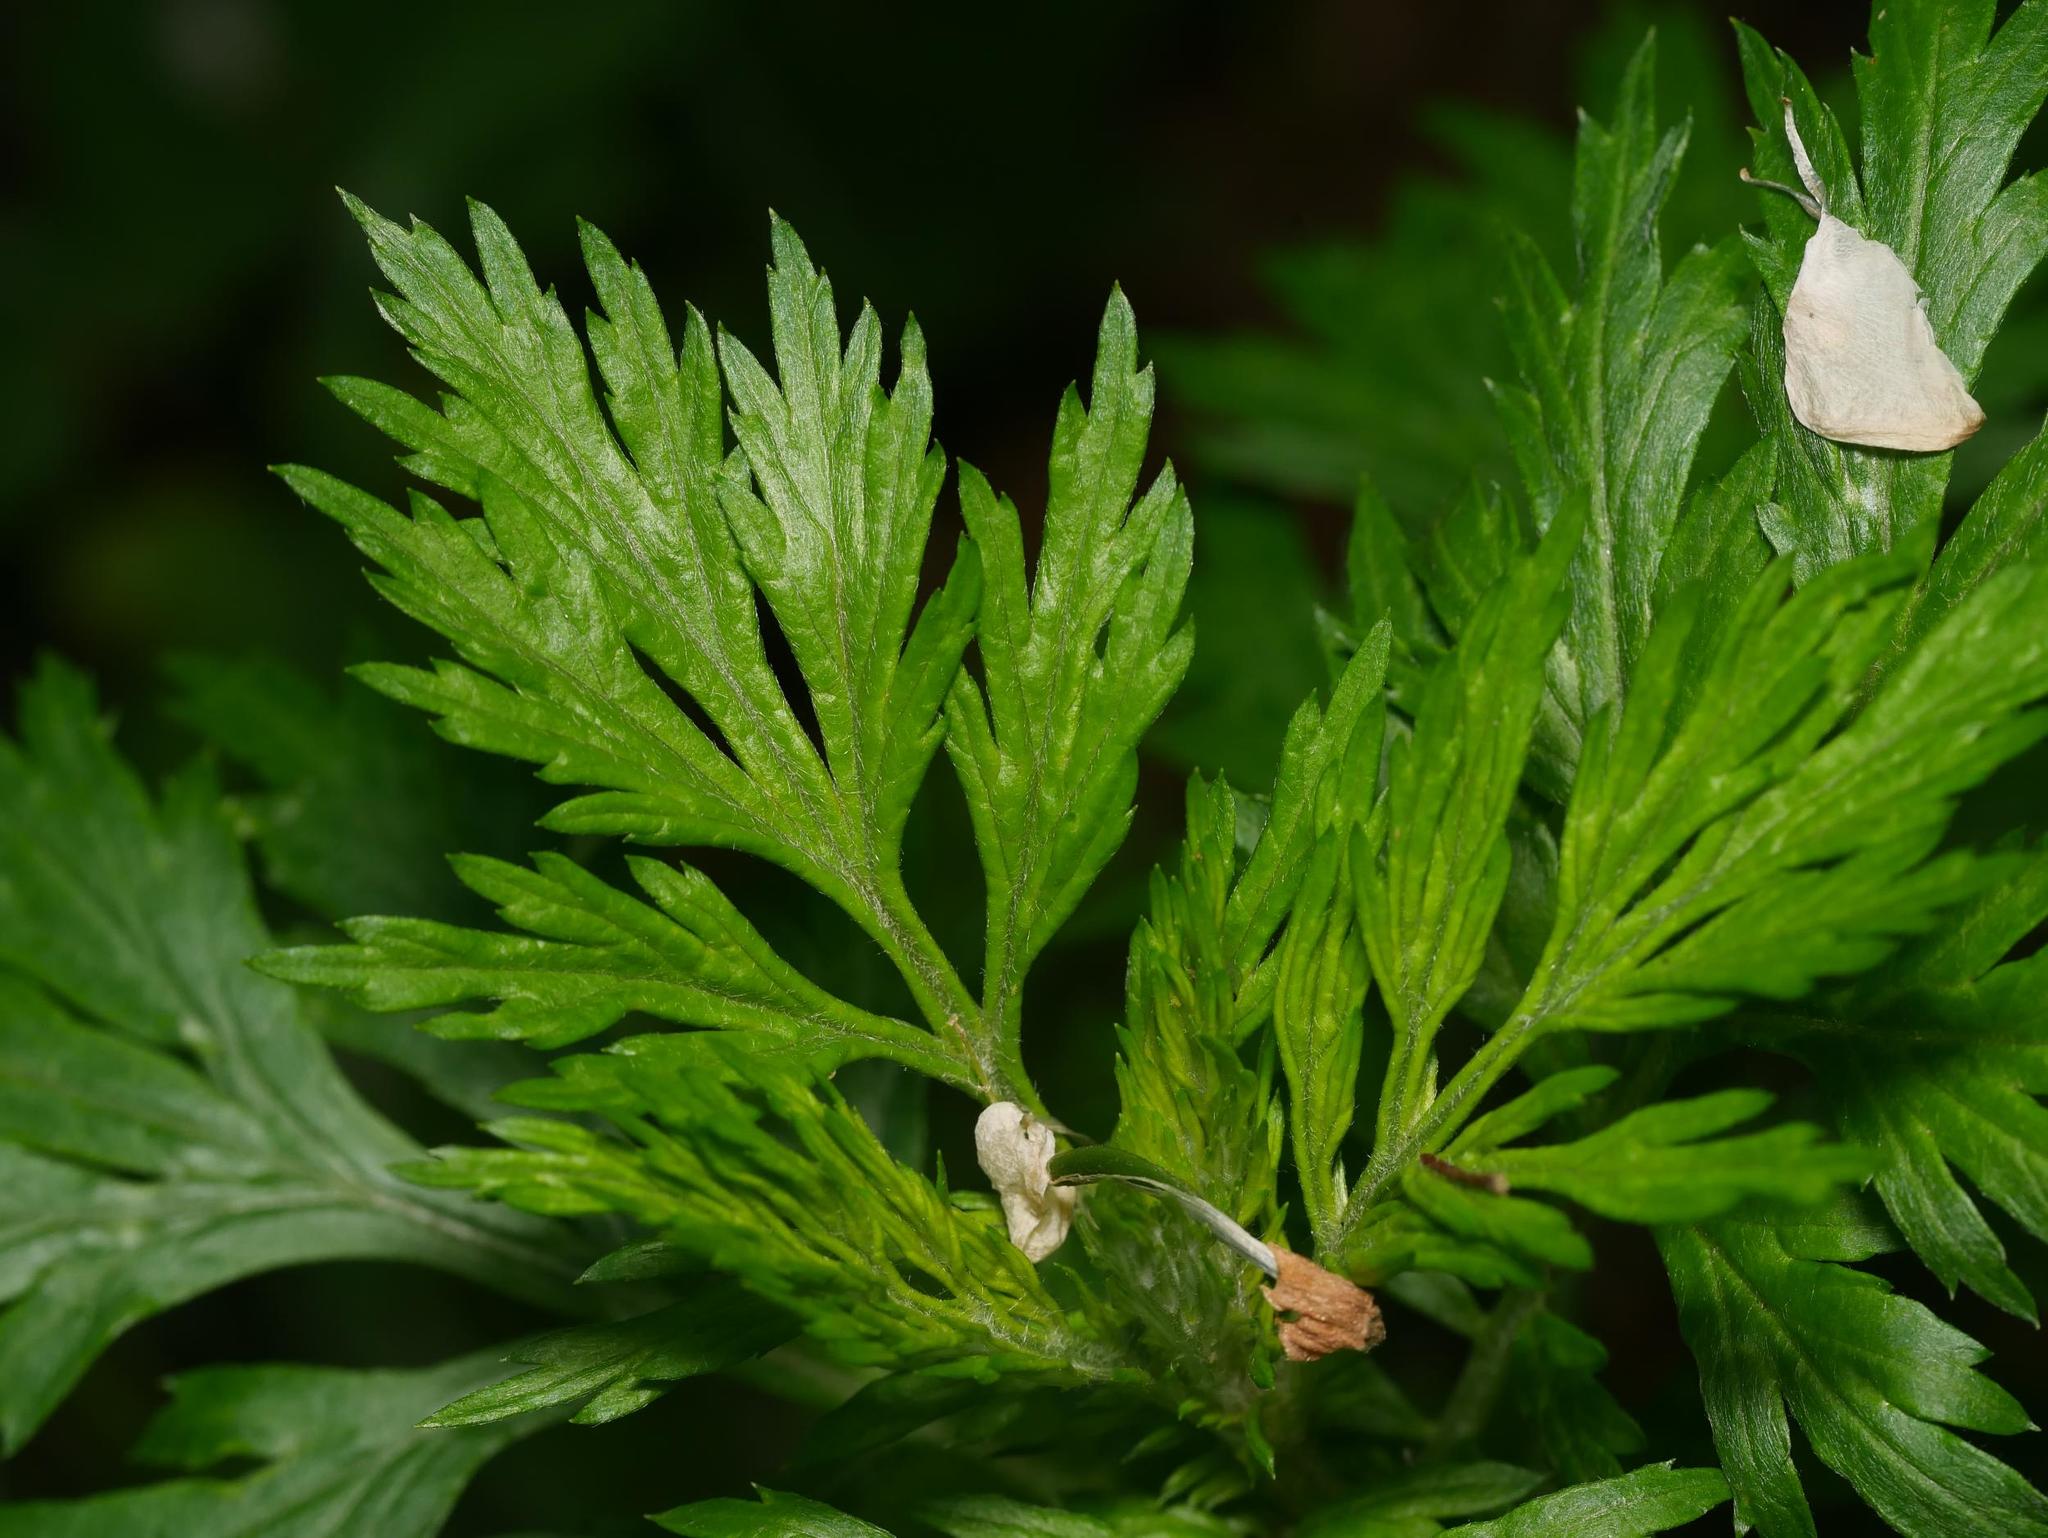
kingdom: Plantae
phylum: Tracheophyta
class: Magnoliopsida
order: Asterales
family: Asteraceae
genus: Artemisia
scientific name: Artemisia vulgaris
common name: Mugwort
